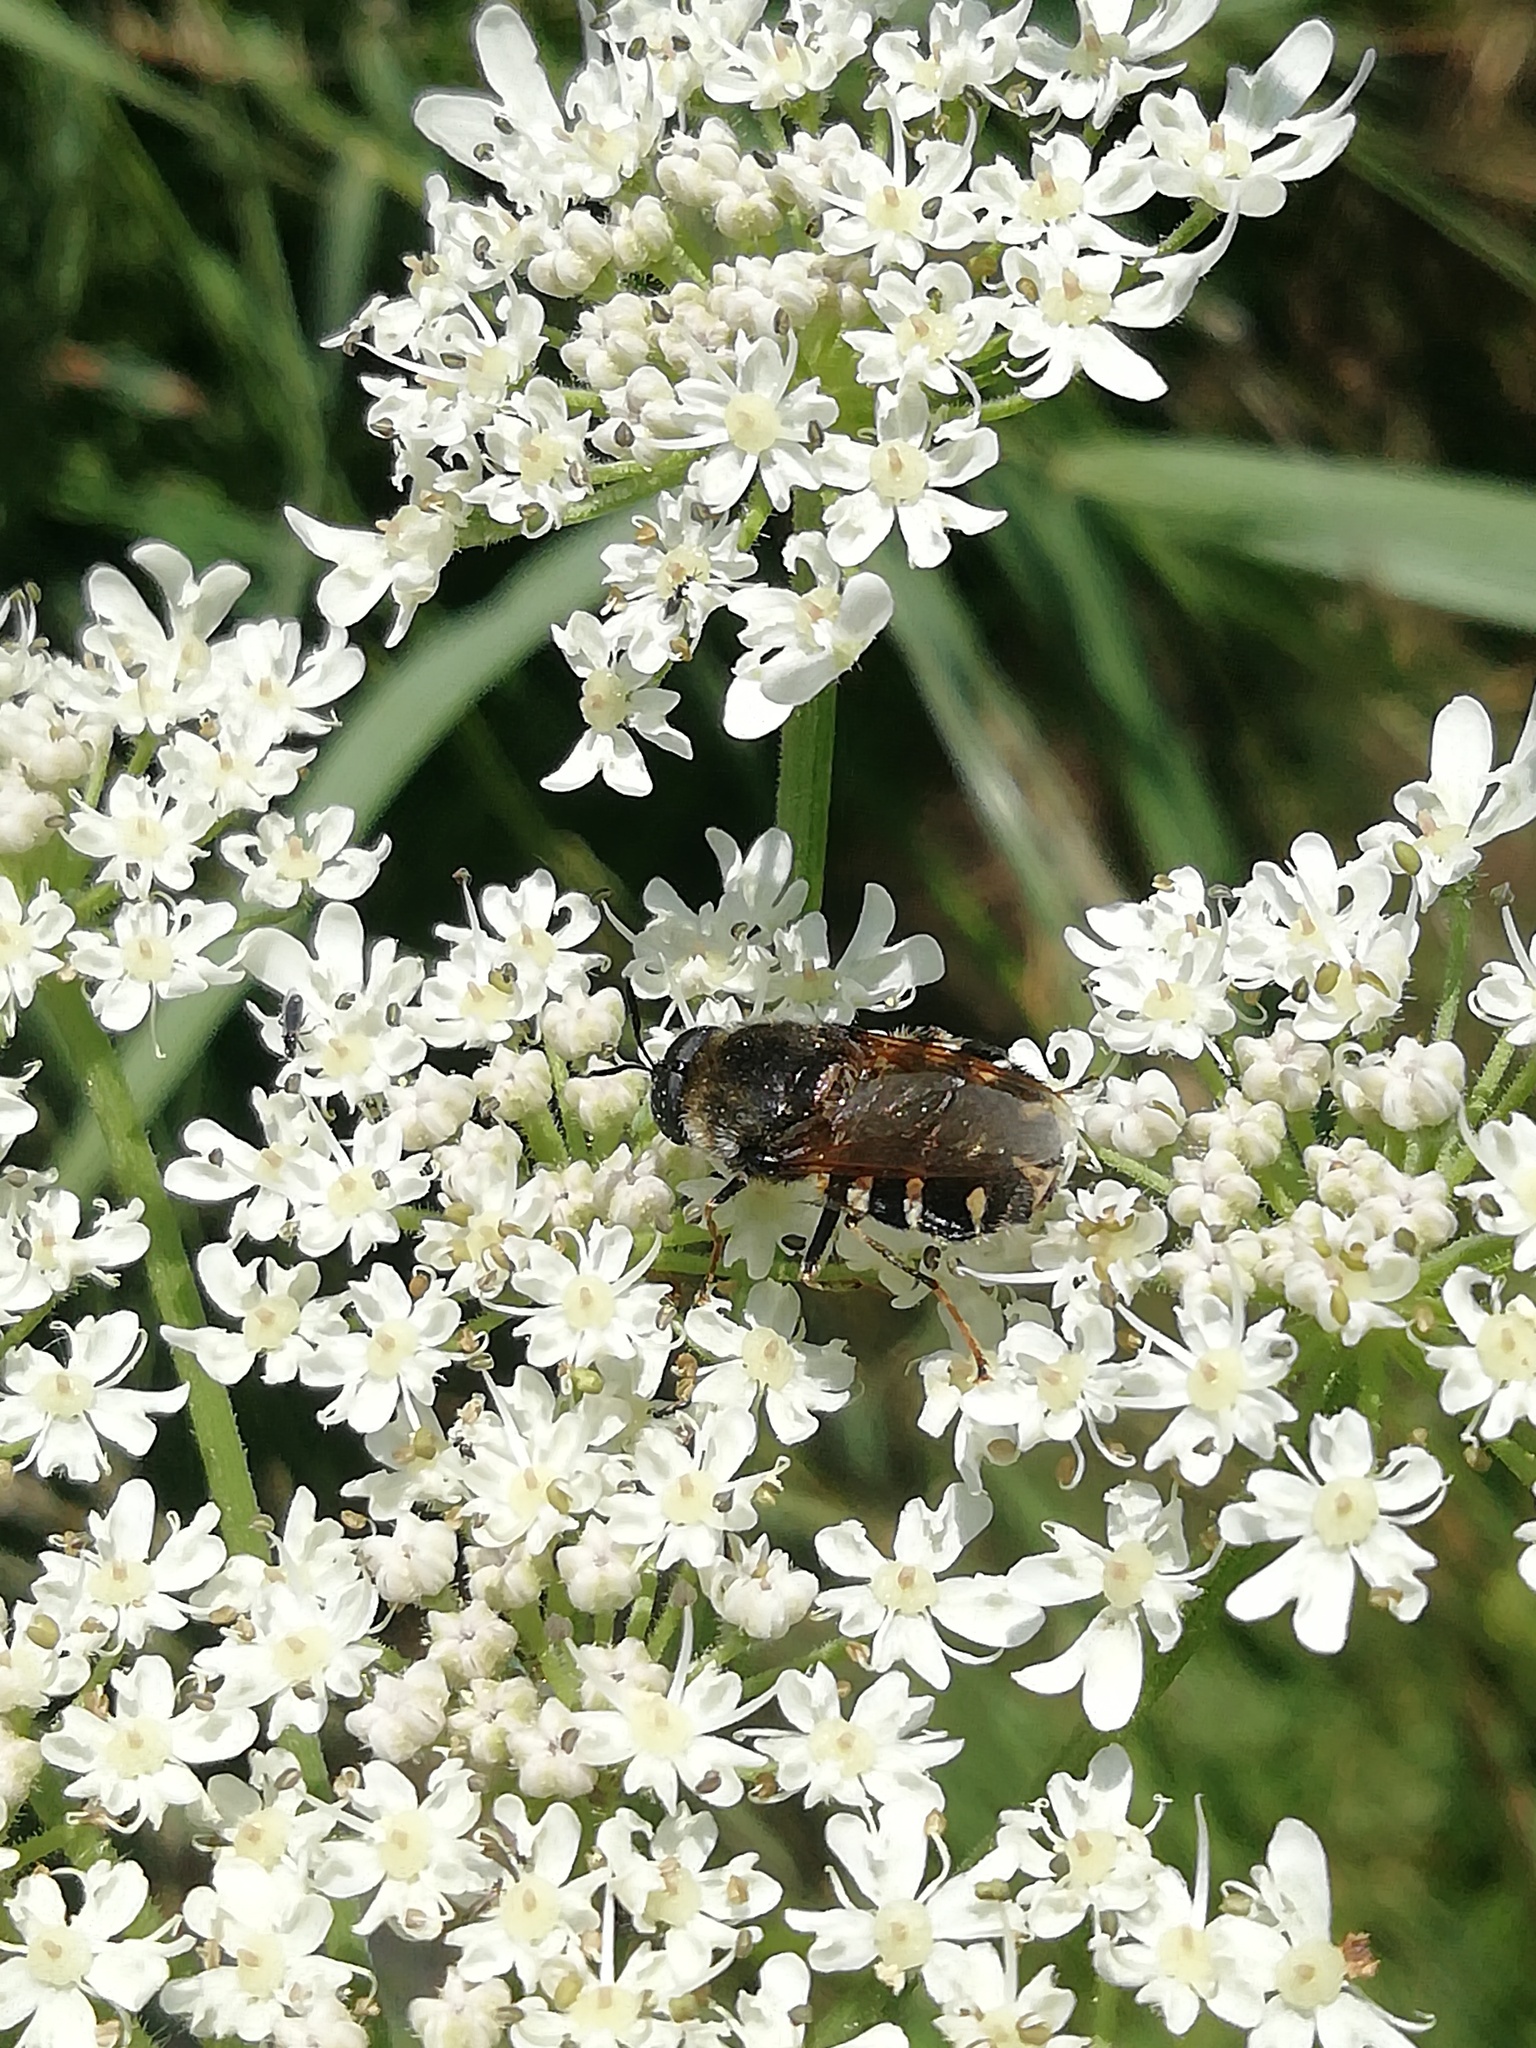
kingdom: Animalia
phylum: Arthropoda
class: Insecta
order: Diptera
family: Stratiomyidae
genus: Stratiomys
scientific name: Stratiomys singularior
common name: Flecked general
